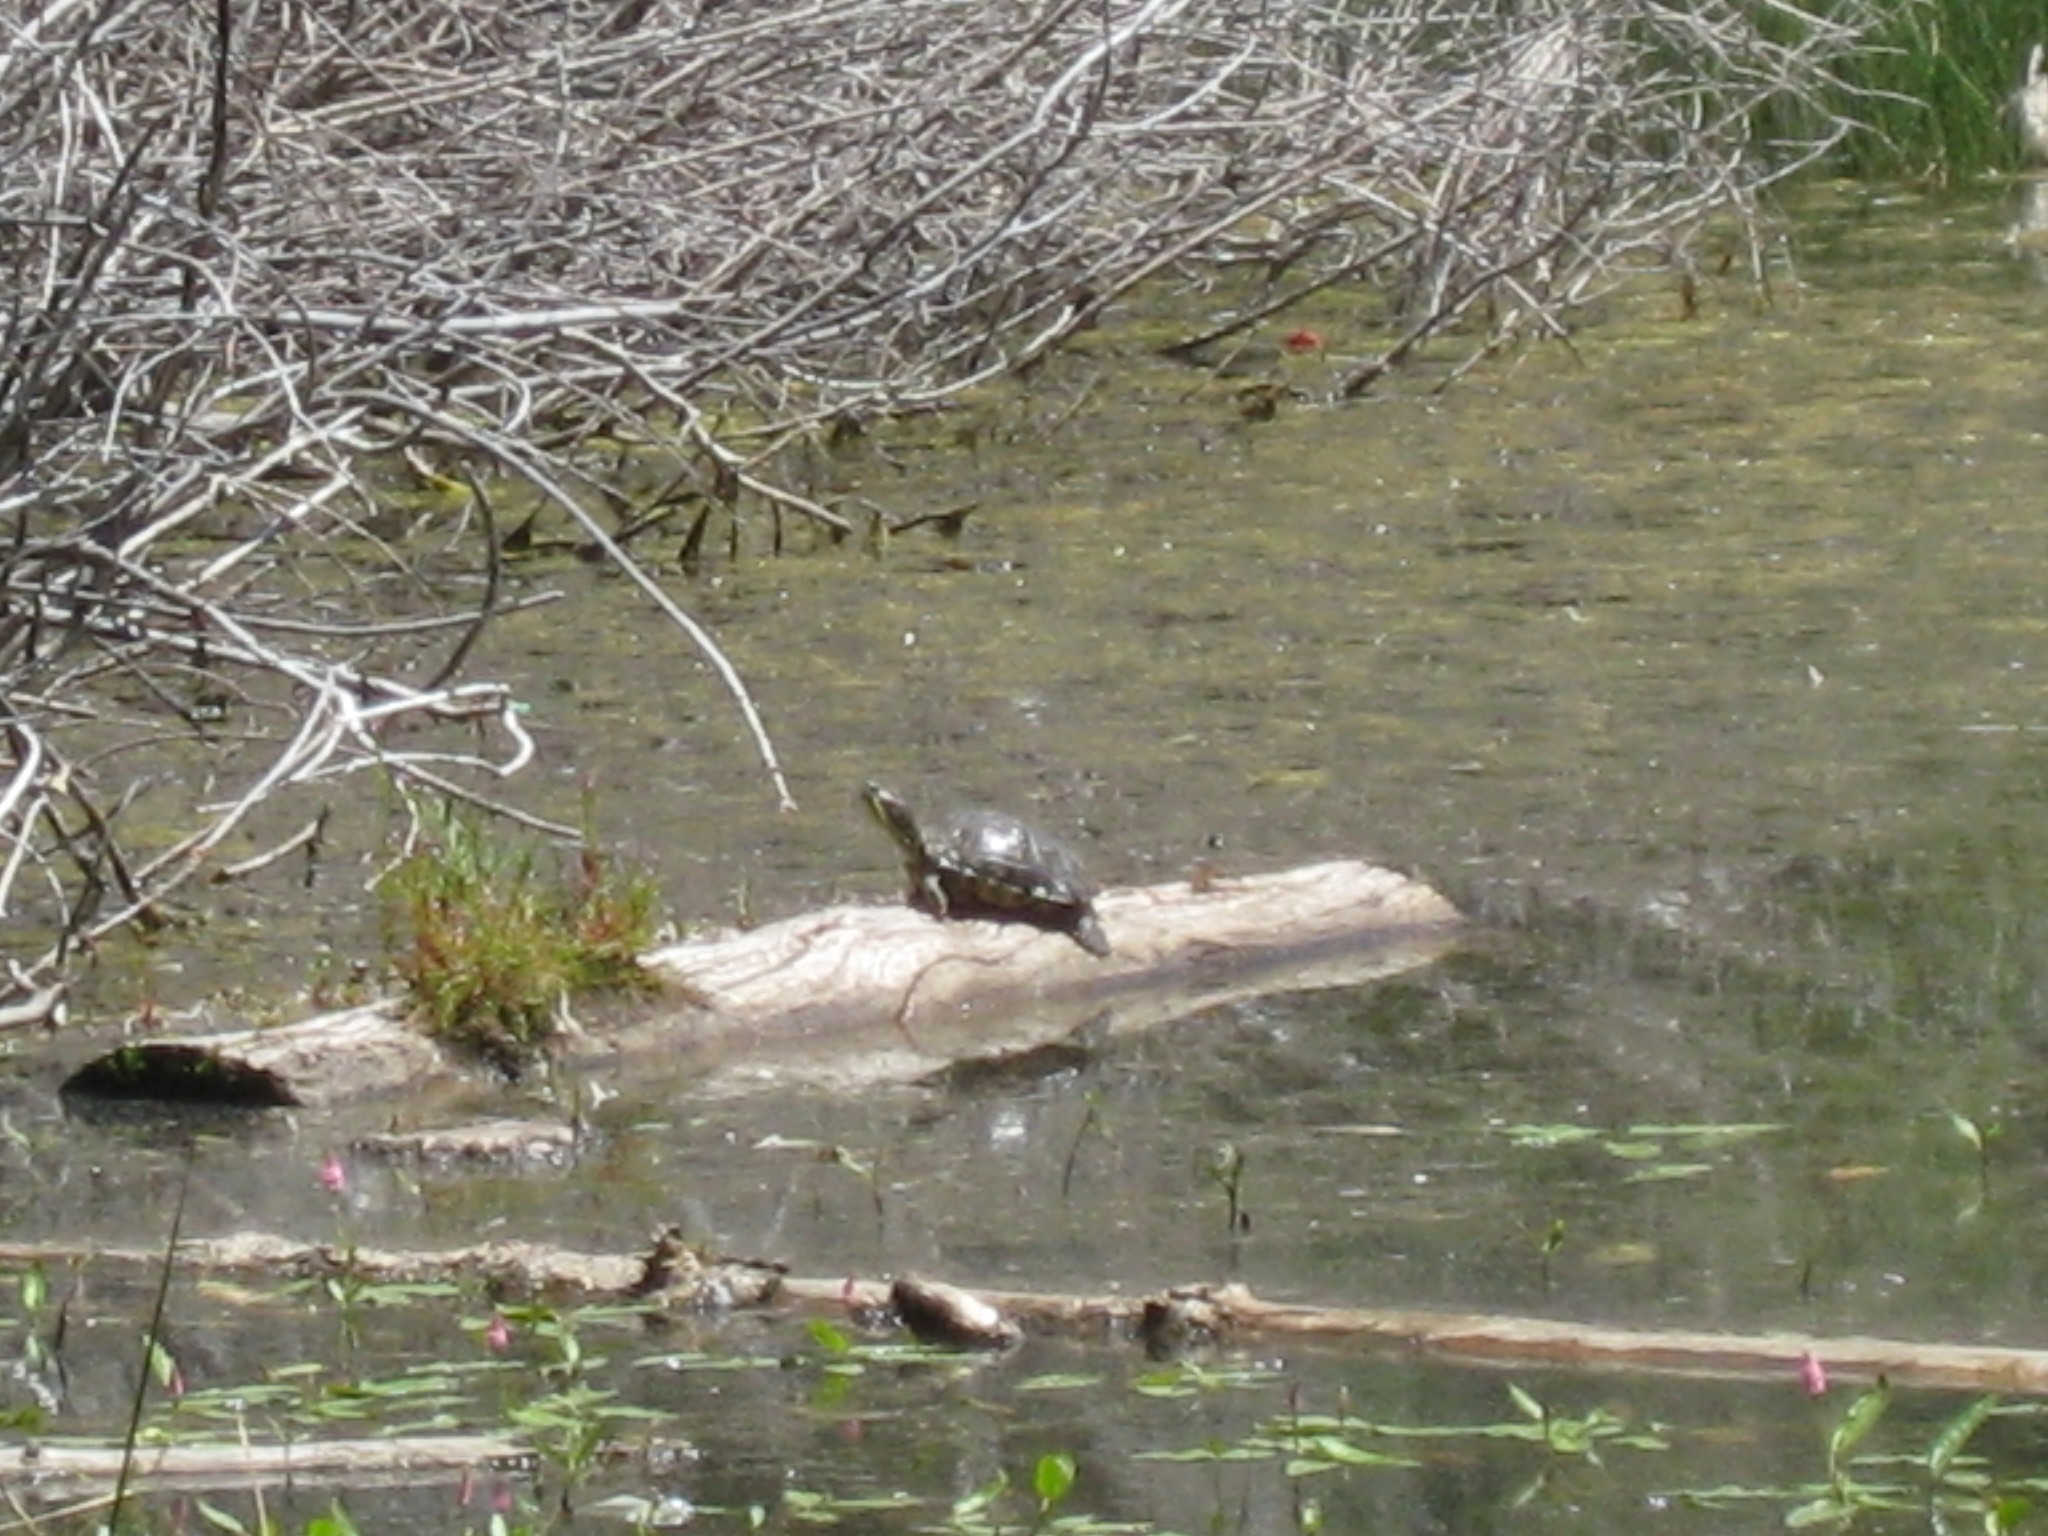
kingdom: Animalia
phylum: Chordata
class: Testudines
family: Emydidae
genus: Trachemys
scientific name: Trachemys scripta
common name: Slider
